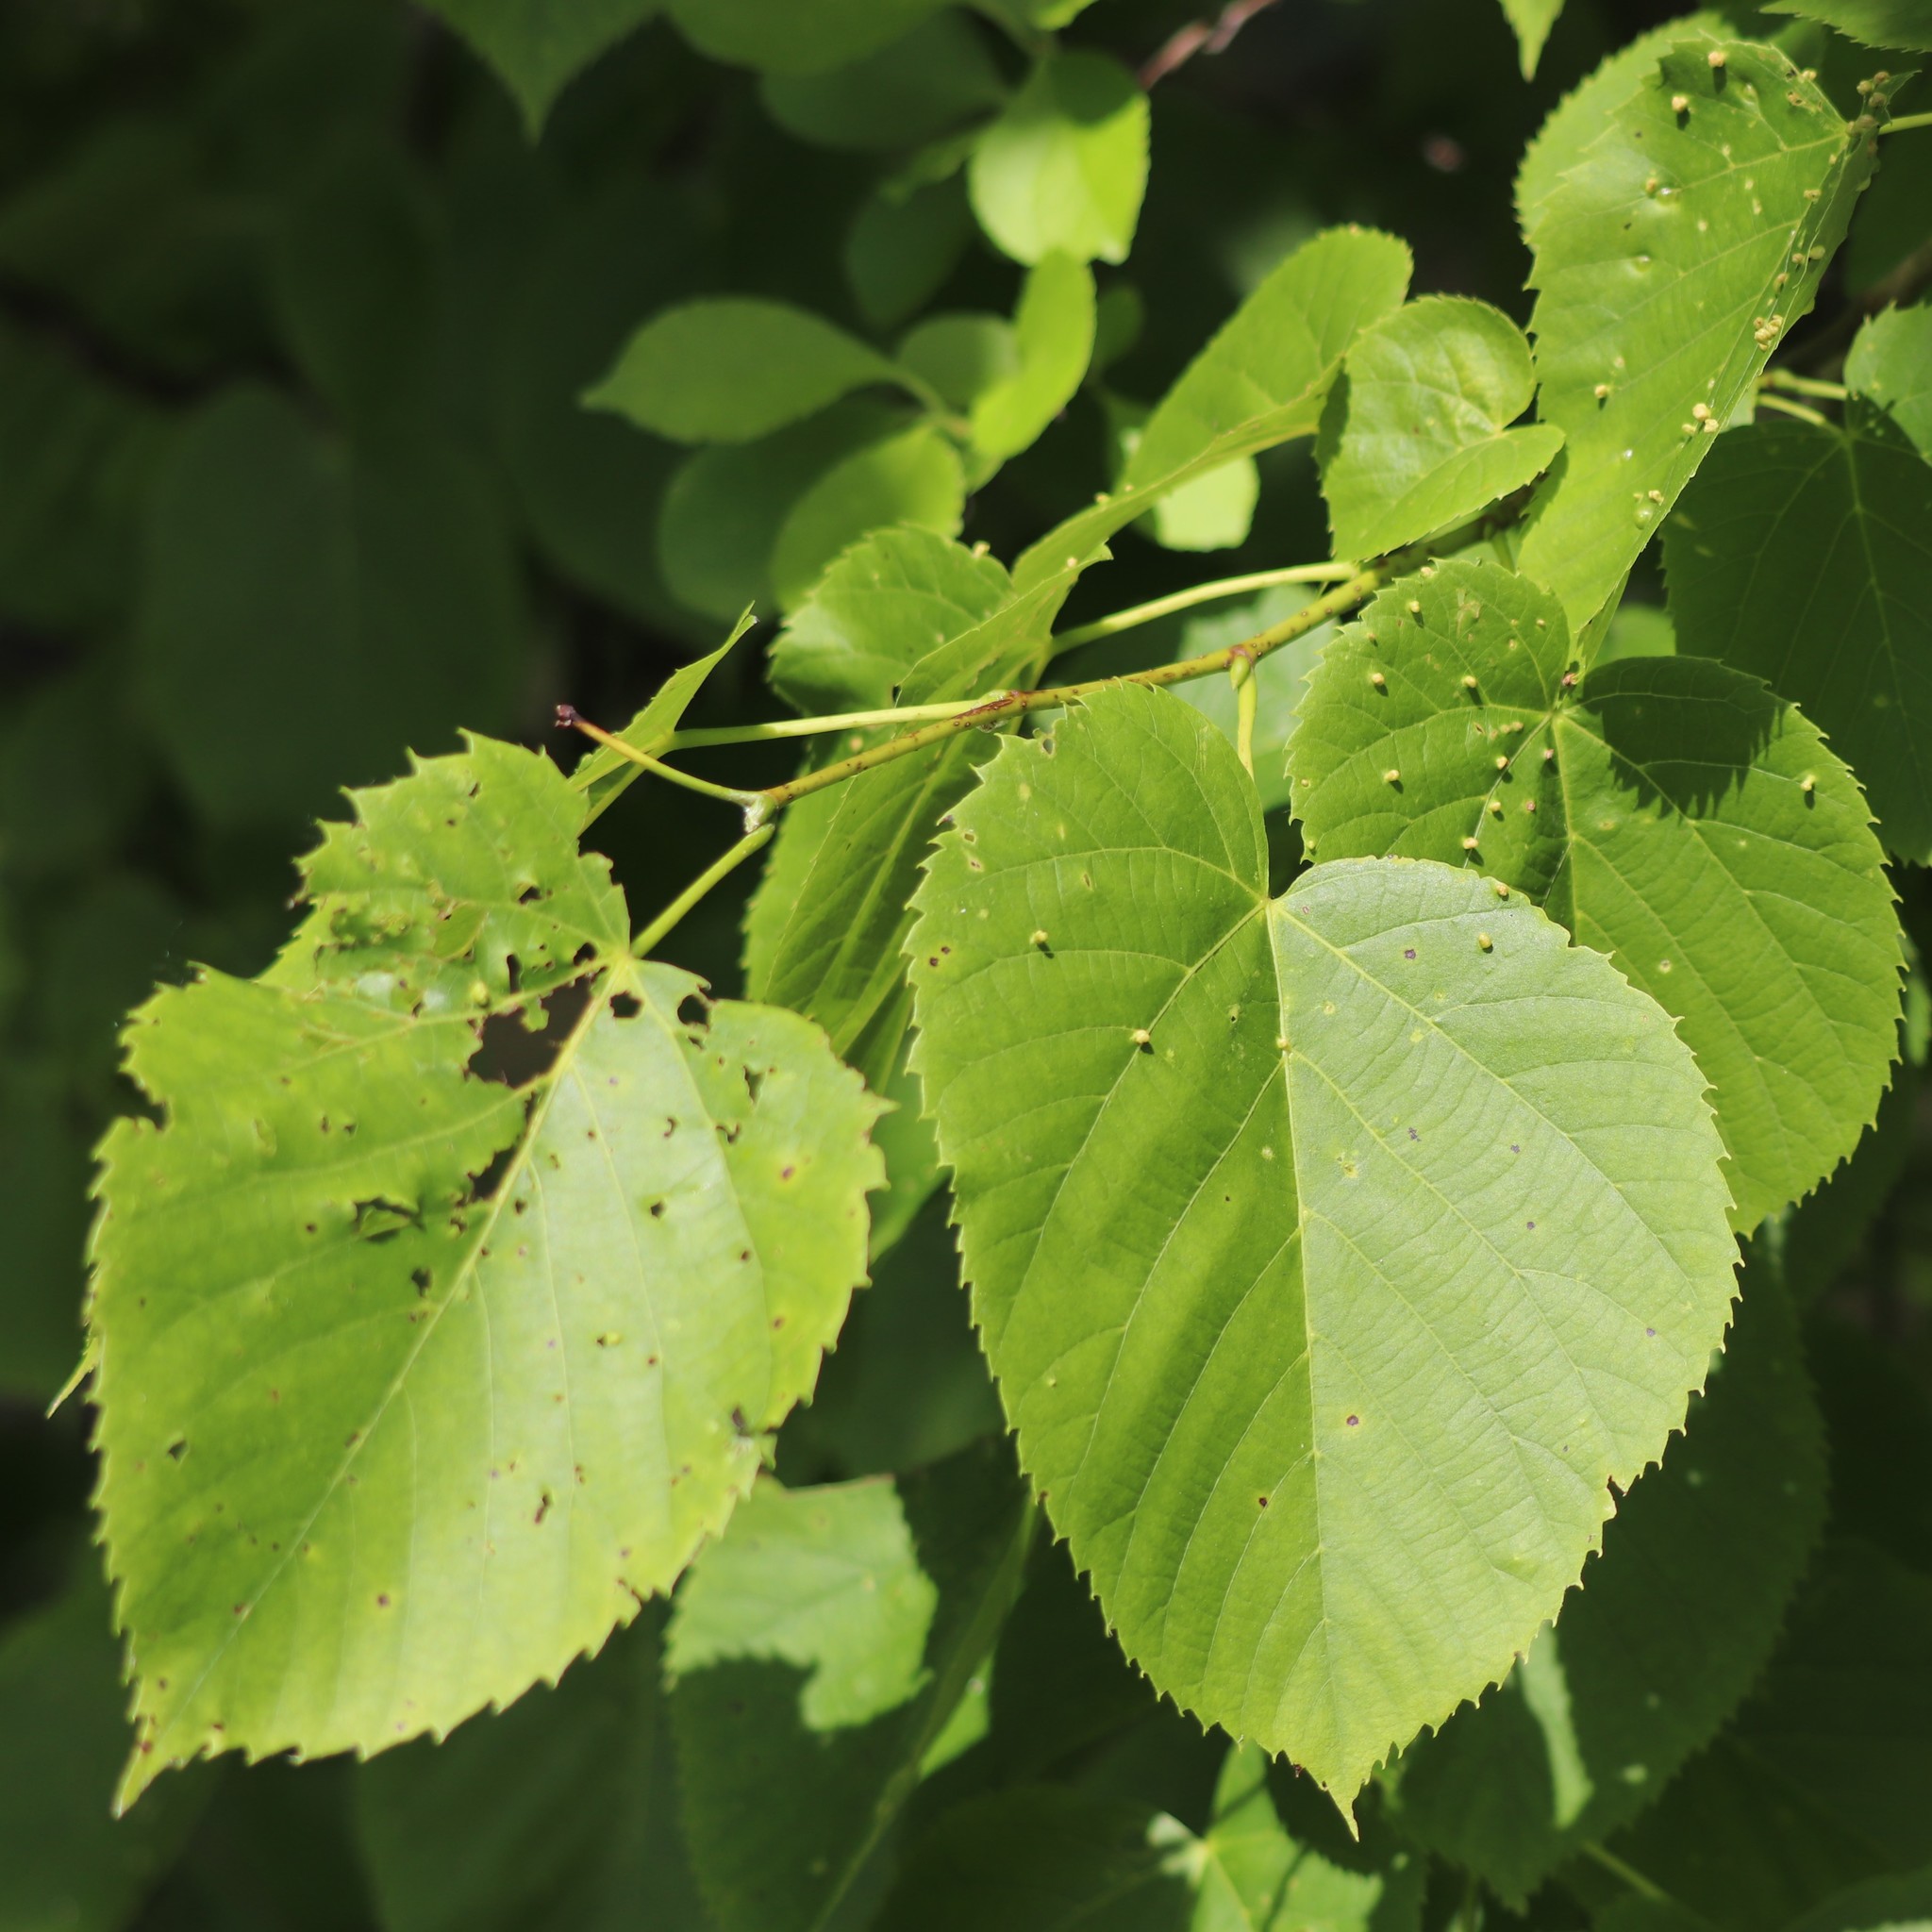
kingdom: Plantae
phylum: Tracheophyta
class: Magnoliopsida
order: Malvales
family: Malvaceae
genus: Tilia
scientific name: Tilia americana
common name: Basswood
